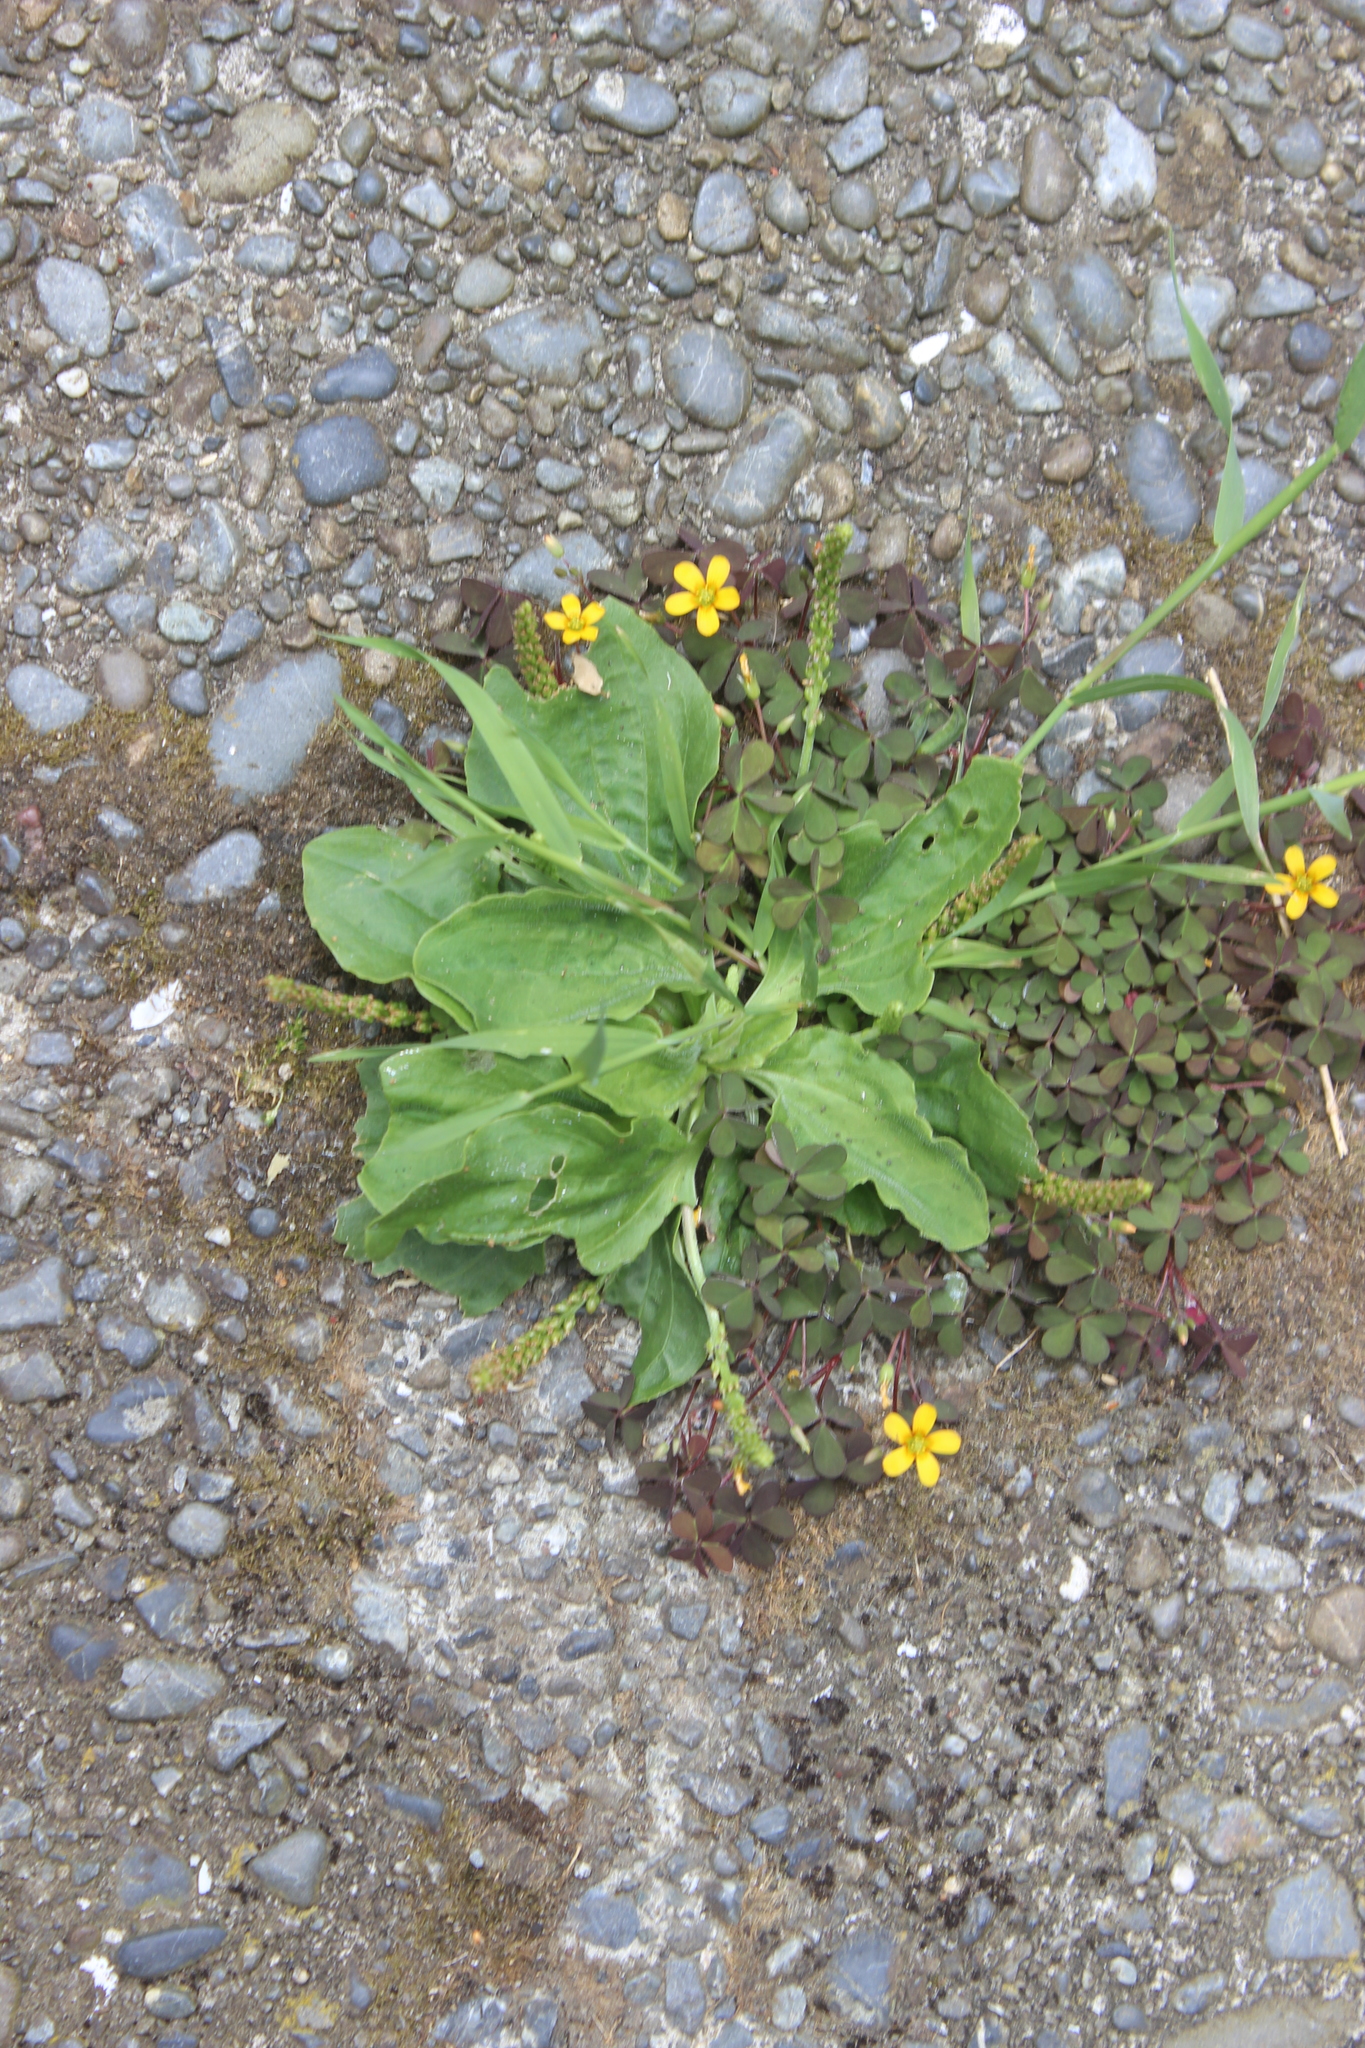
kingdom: Plantae
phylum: Tracheophyta
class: Magnoliopsida
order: Lamiales
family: Plantaginaceae
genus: Plantago
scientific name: Plantago major
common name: Common plantain
